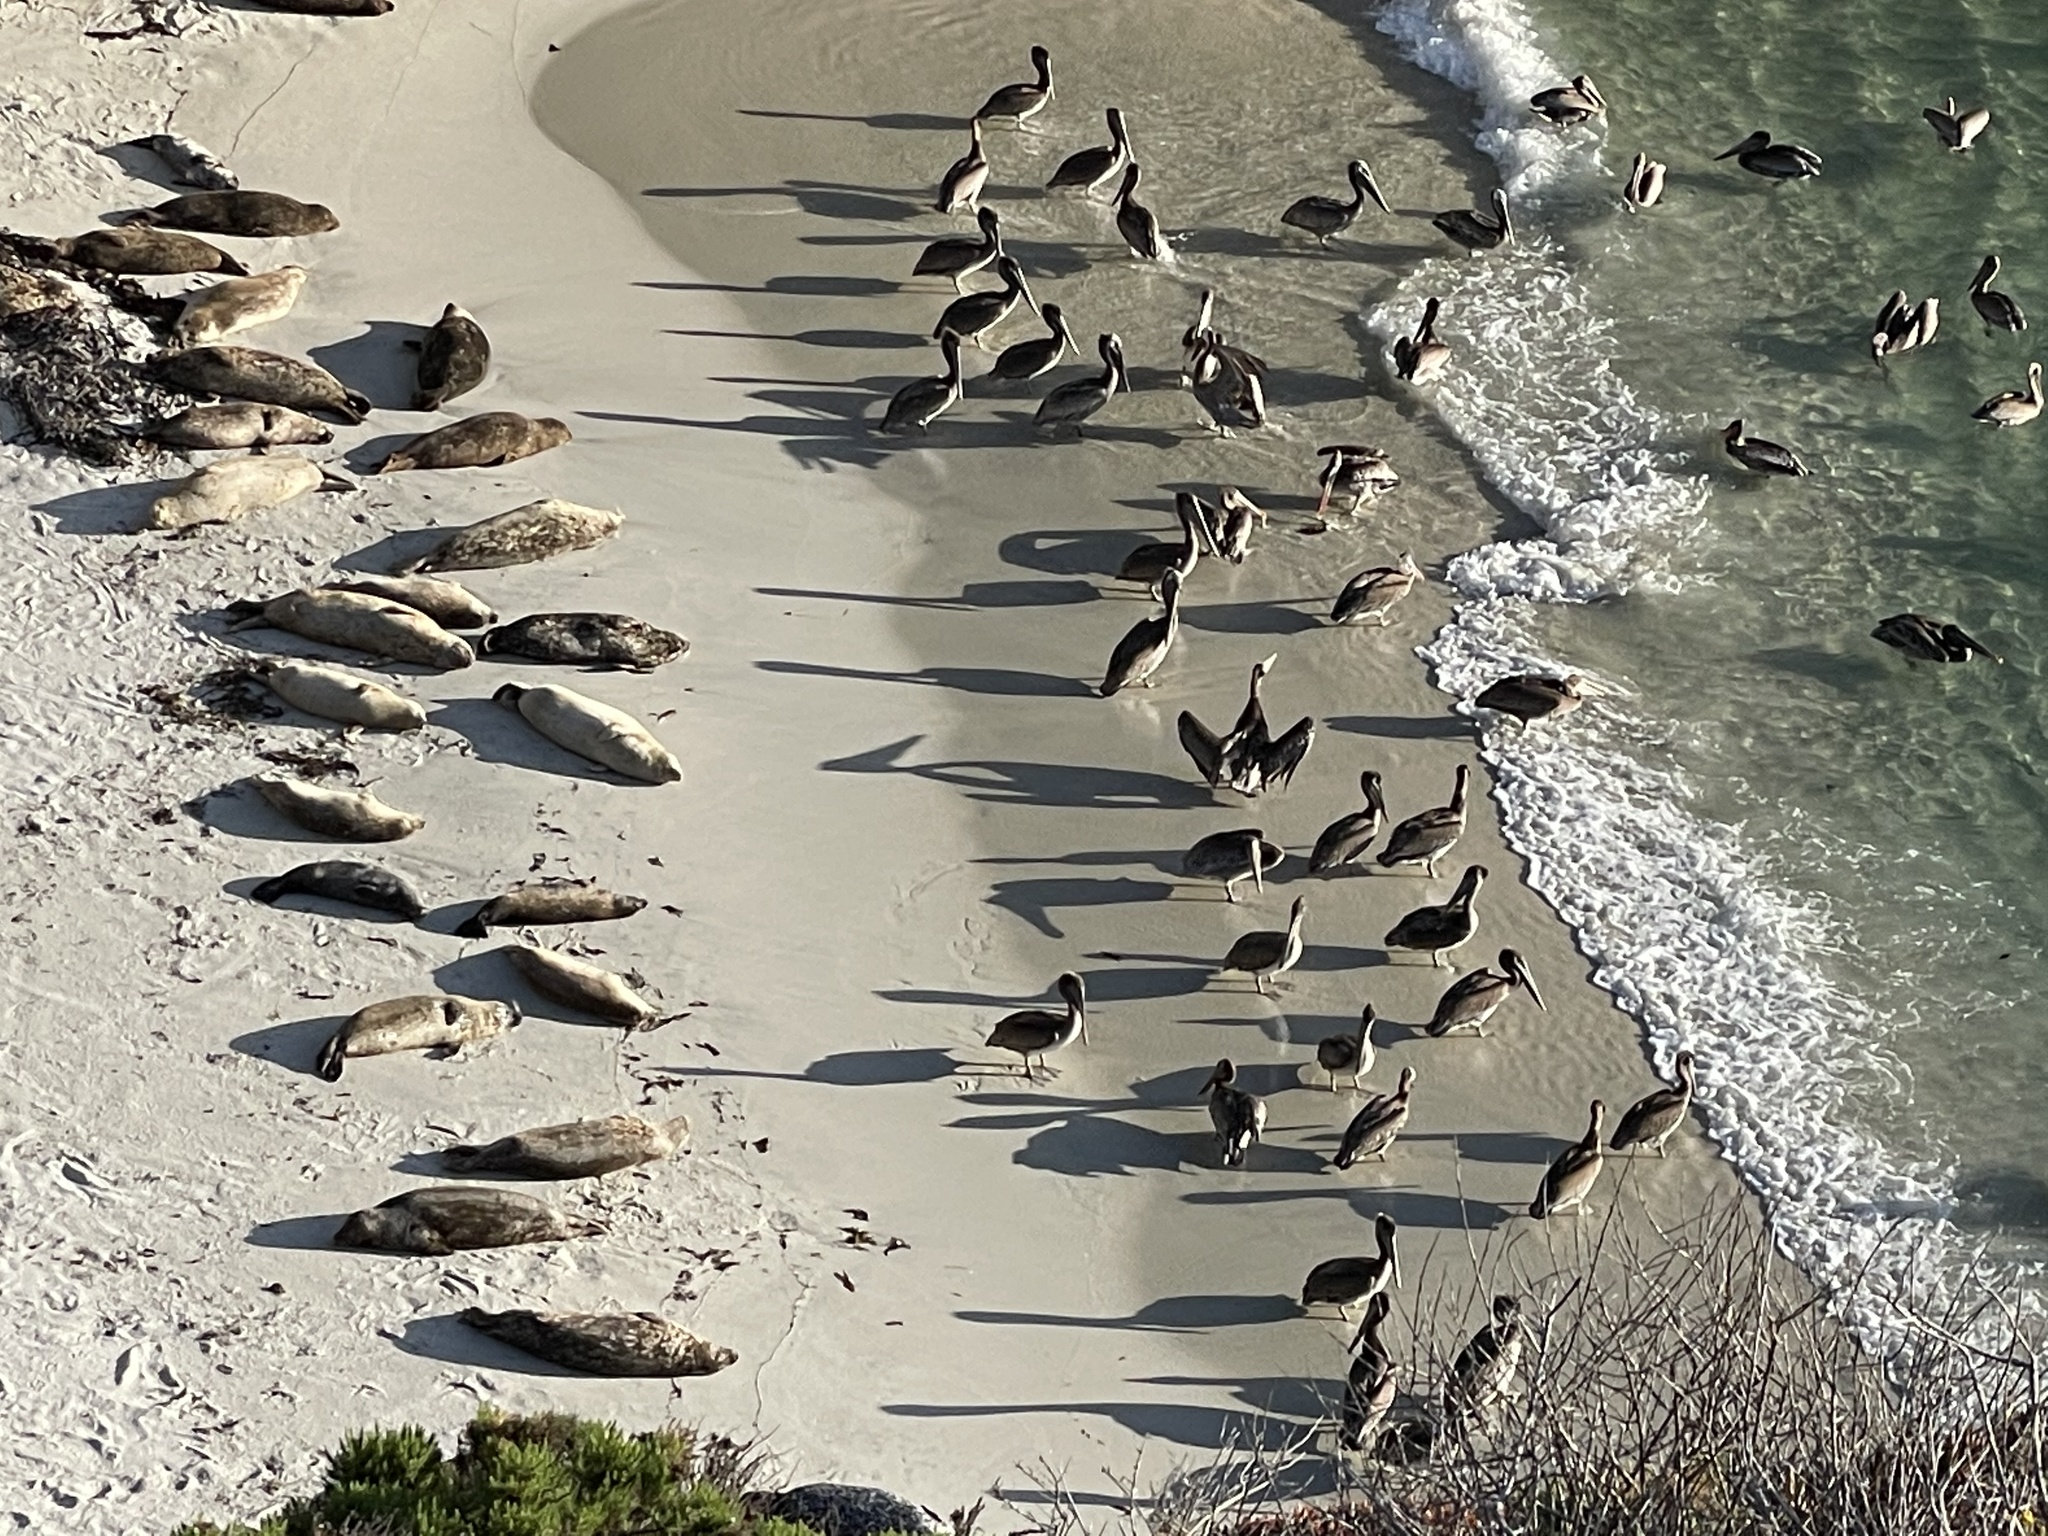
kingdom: Animalia
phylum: Chordata
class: Aves
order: Pelecaniformes
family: Pelecanidae
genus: Pelecanus
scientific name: Pelecanus occidentalis
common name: Brown pelican
